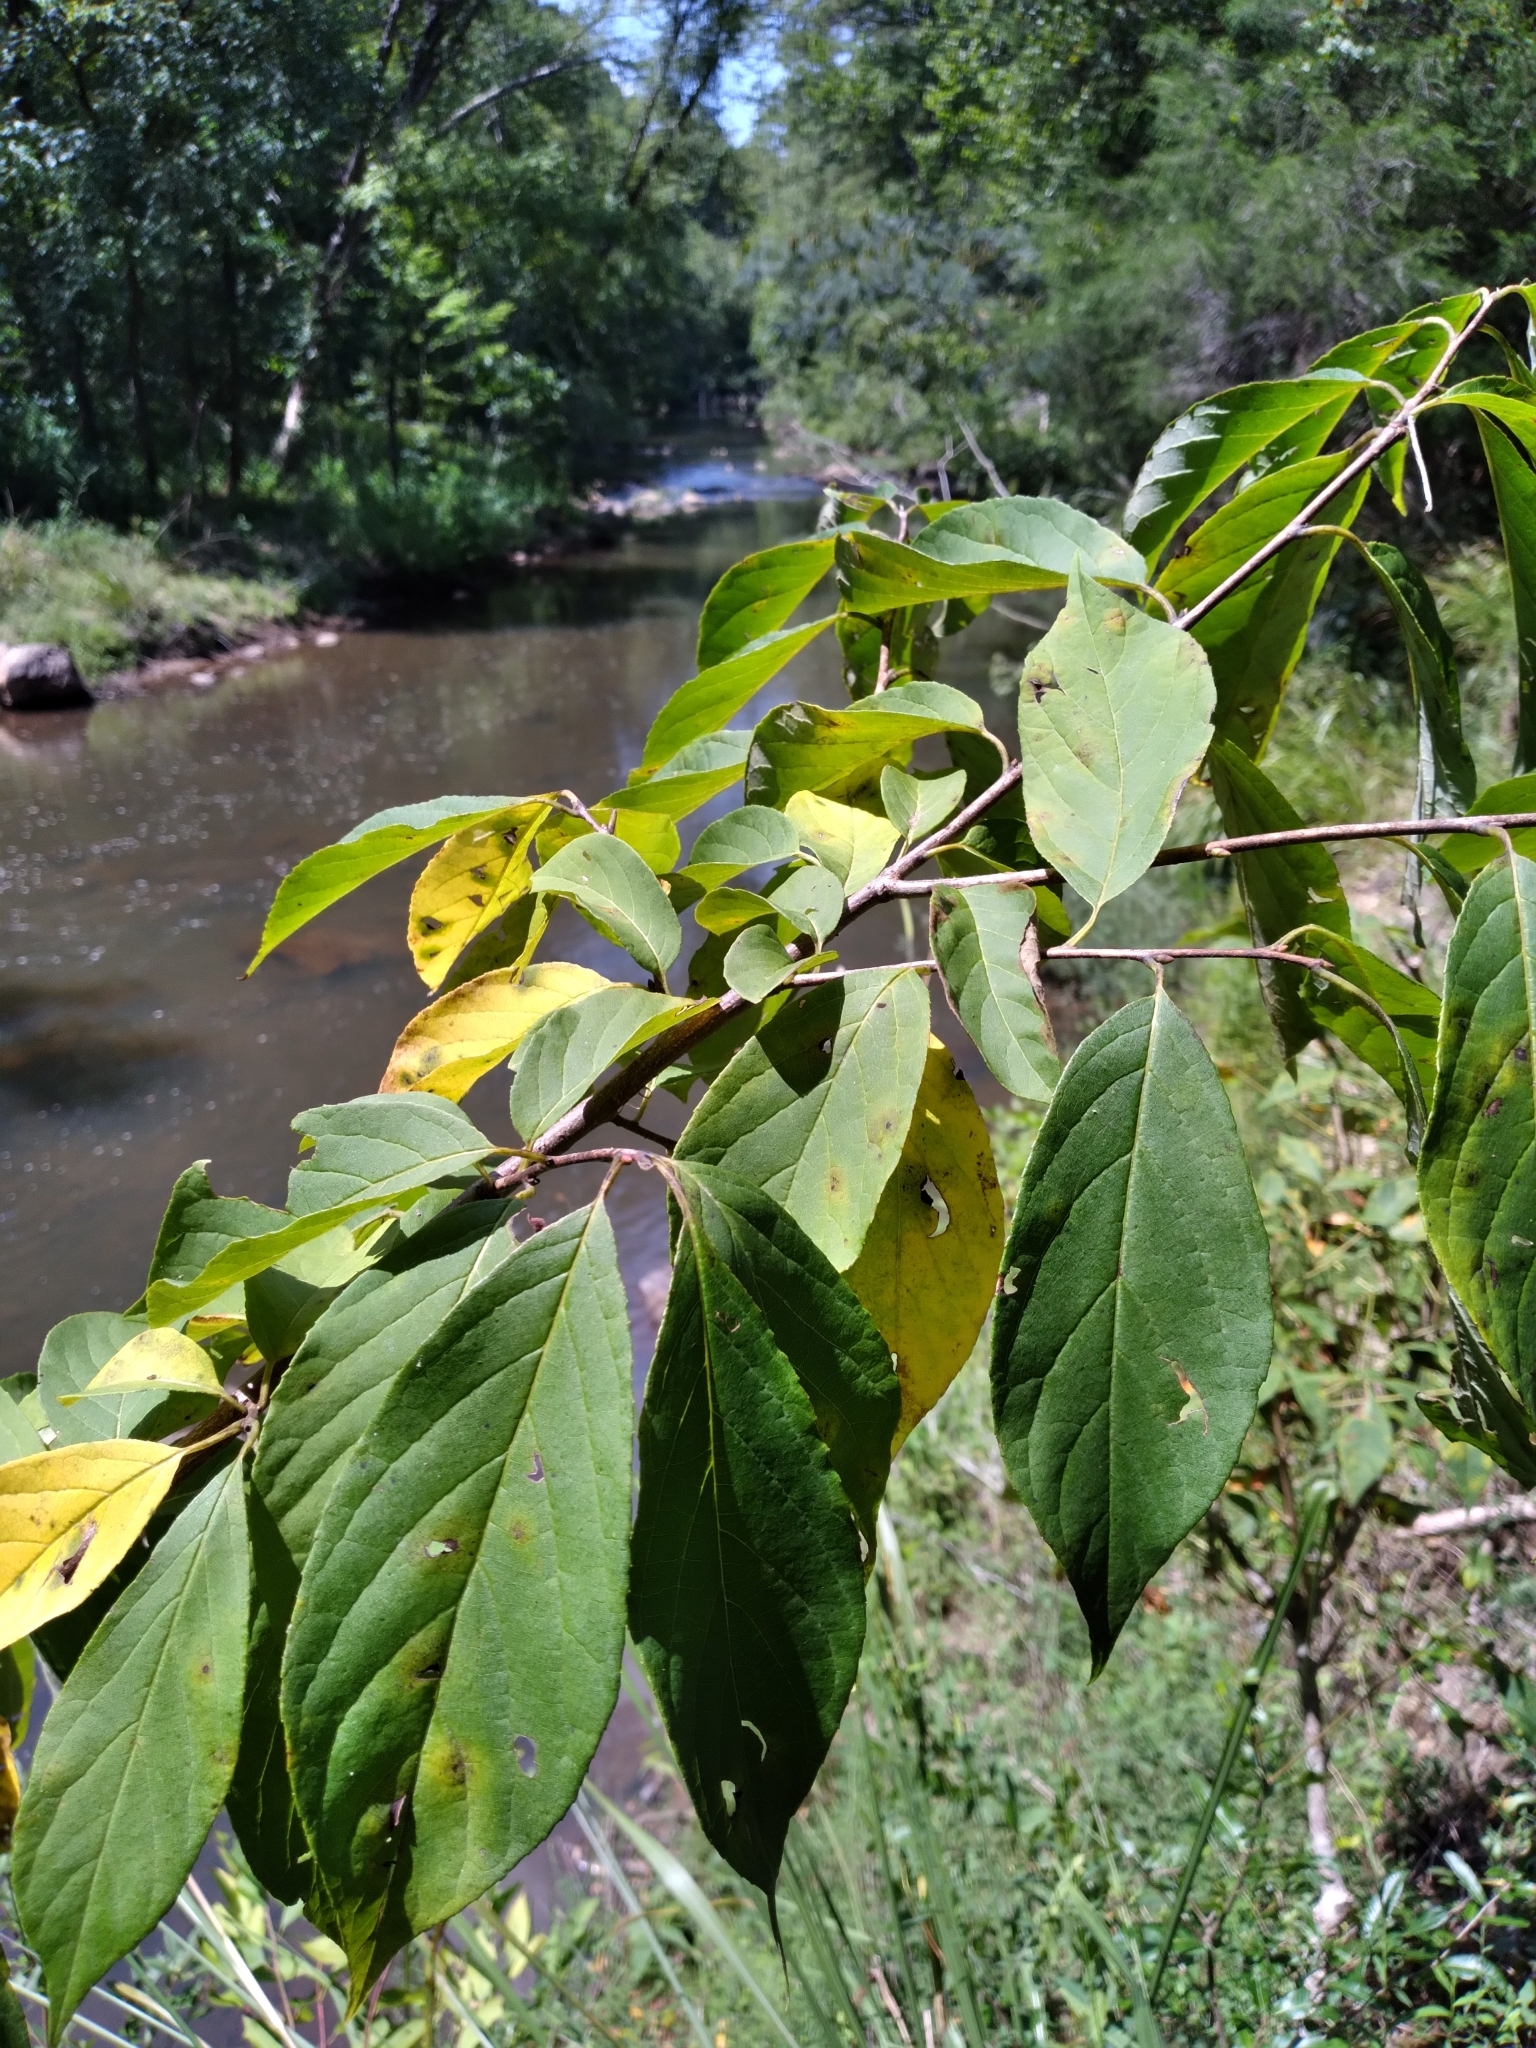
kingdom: Plantae
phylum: Tracheophyta
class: Magnoliopsida
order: Ericales
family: Styracaceae
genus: Halesia
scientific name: Halesia tetraptera
